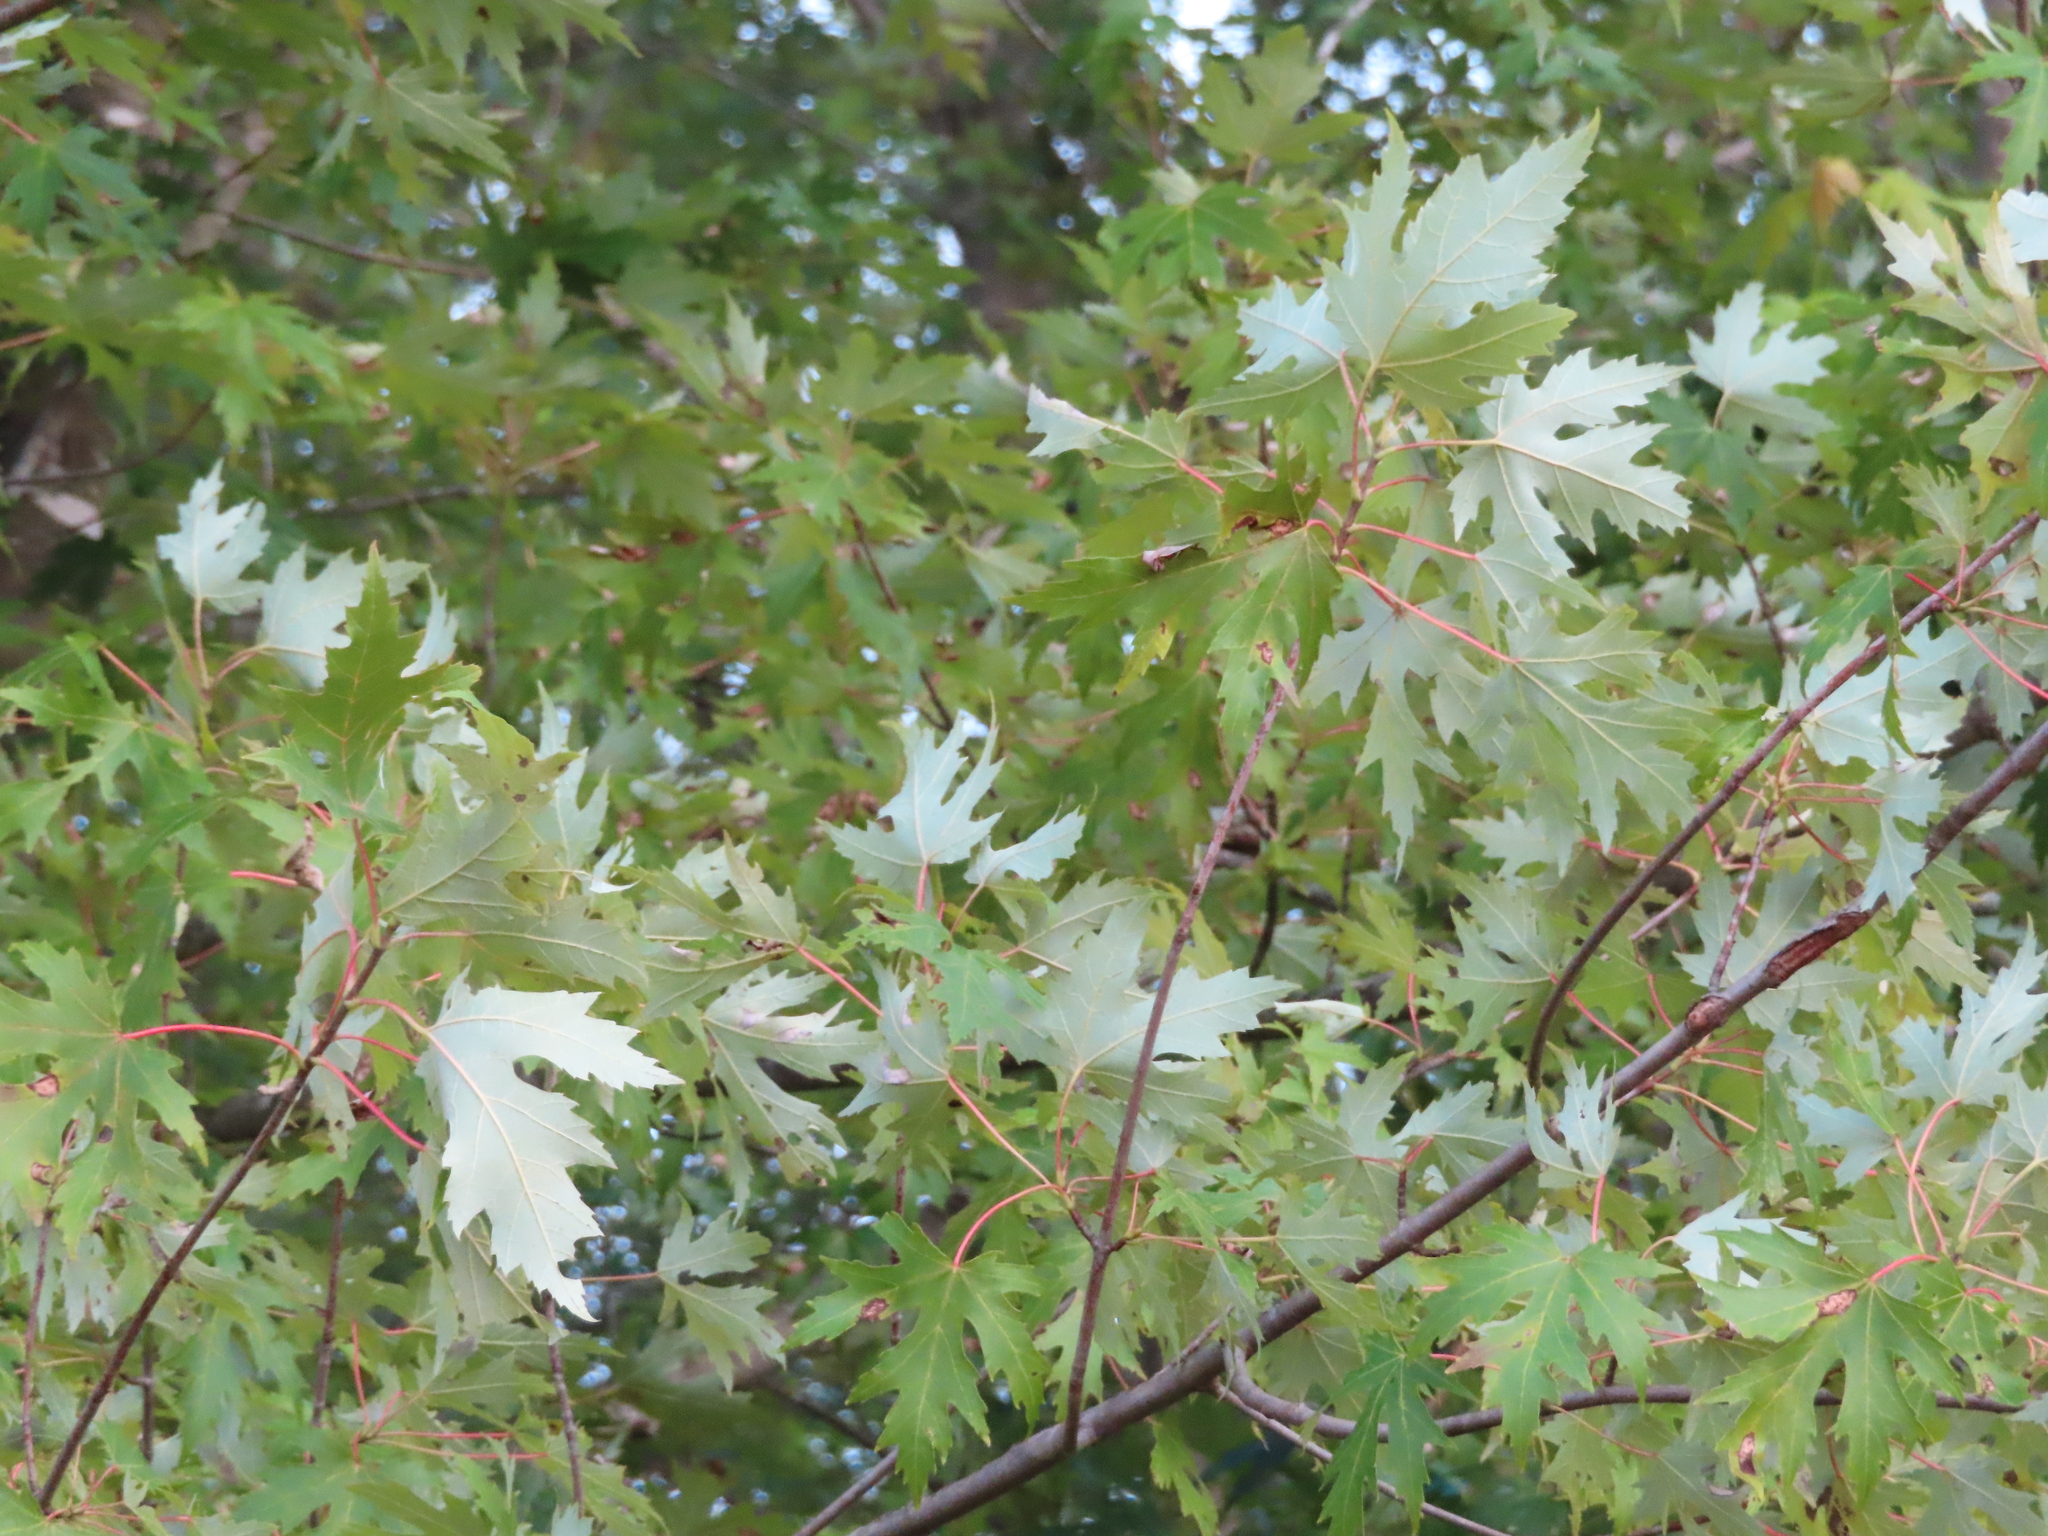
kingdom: Plantae
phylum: Tracheophyta
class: Magnoliopsida
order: Sapindales
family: Sapindaceae
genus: Acer
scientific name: Acer saccharinum
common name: Silver maple
